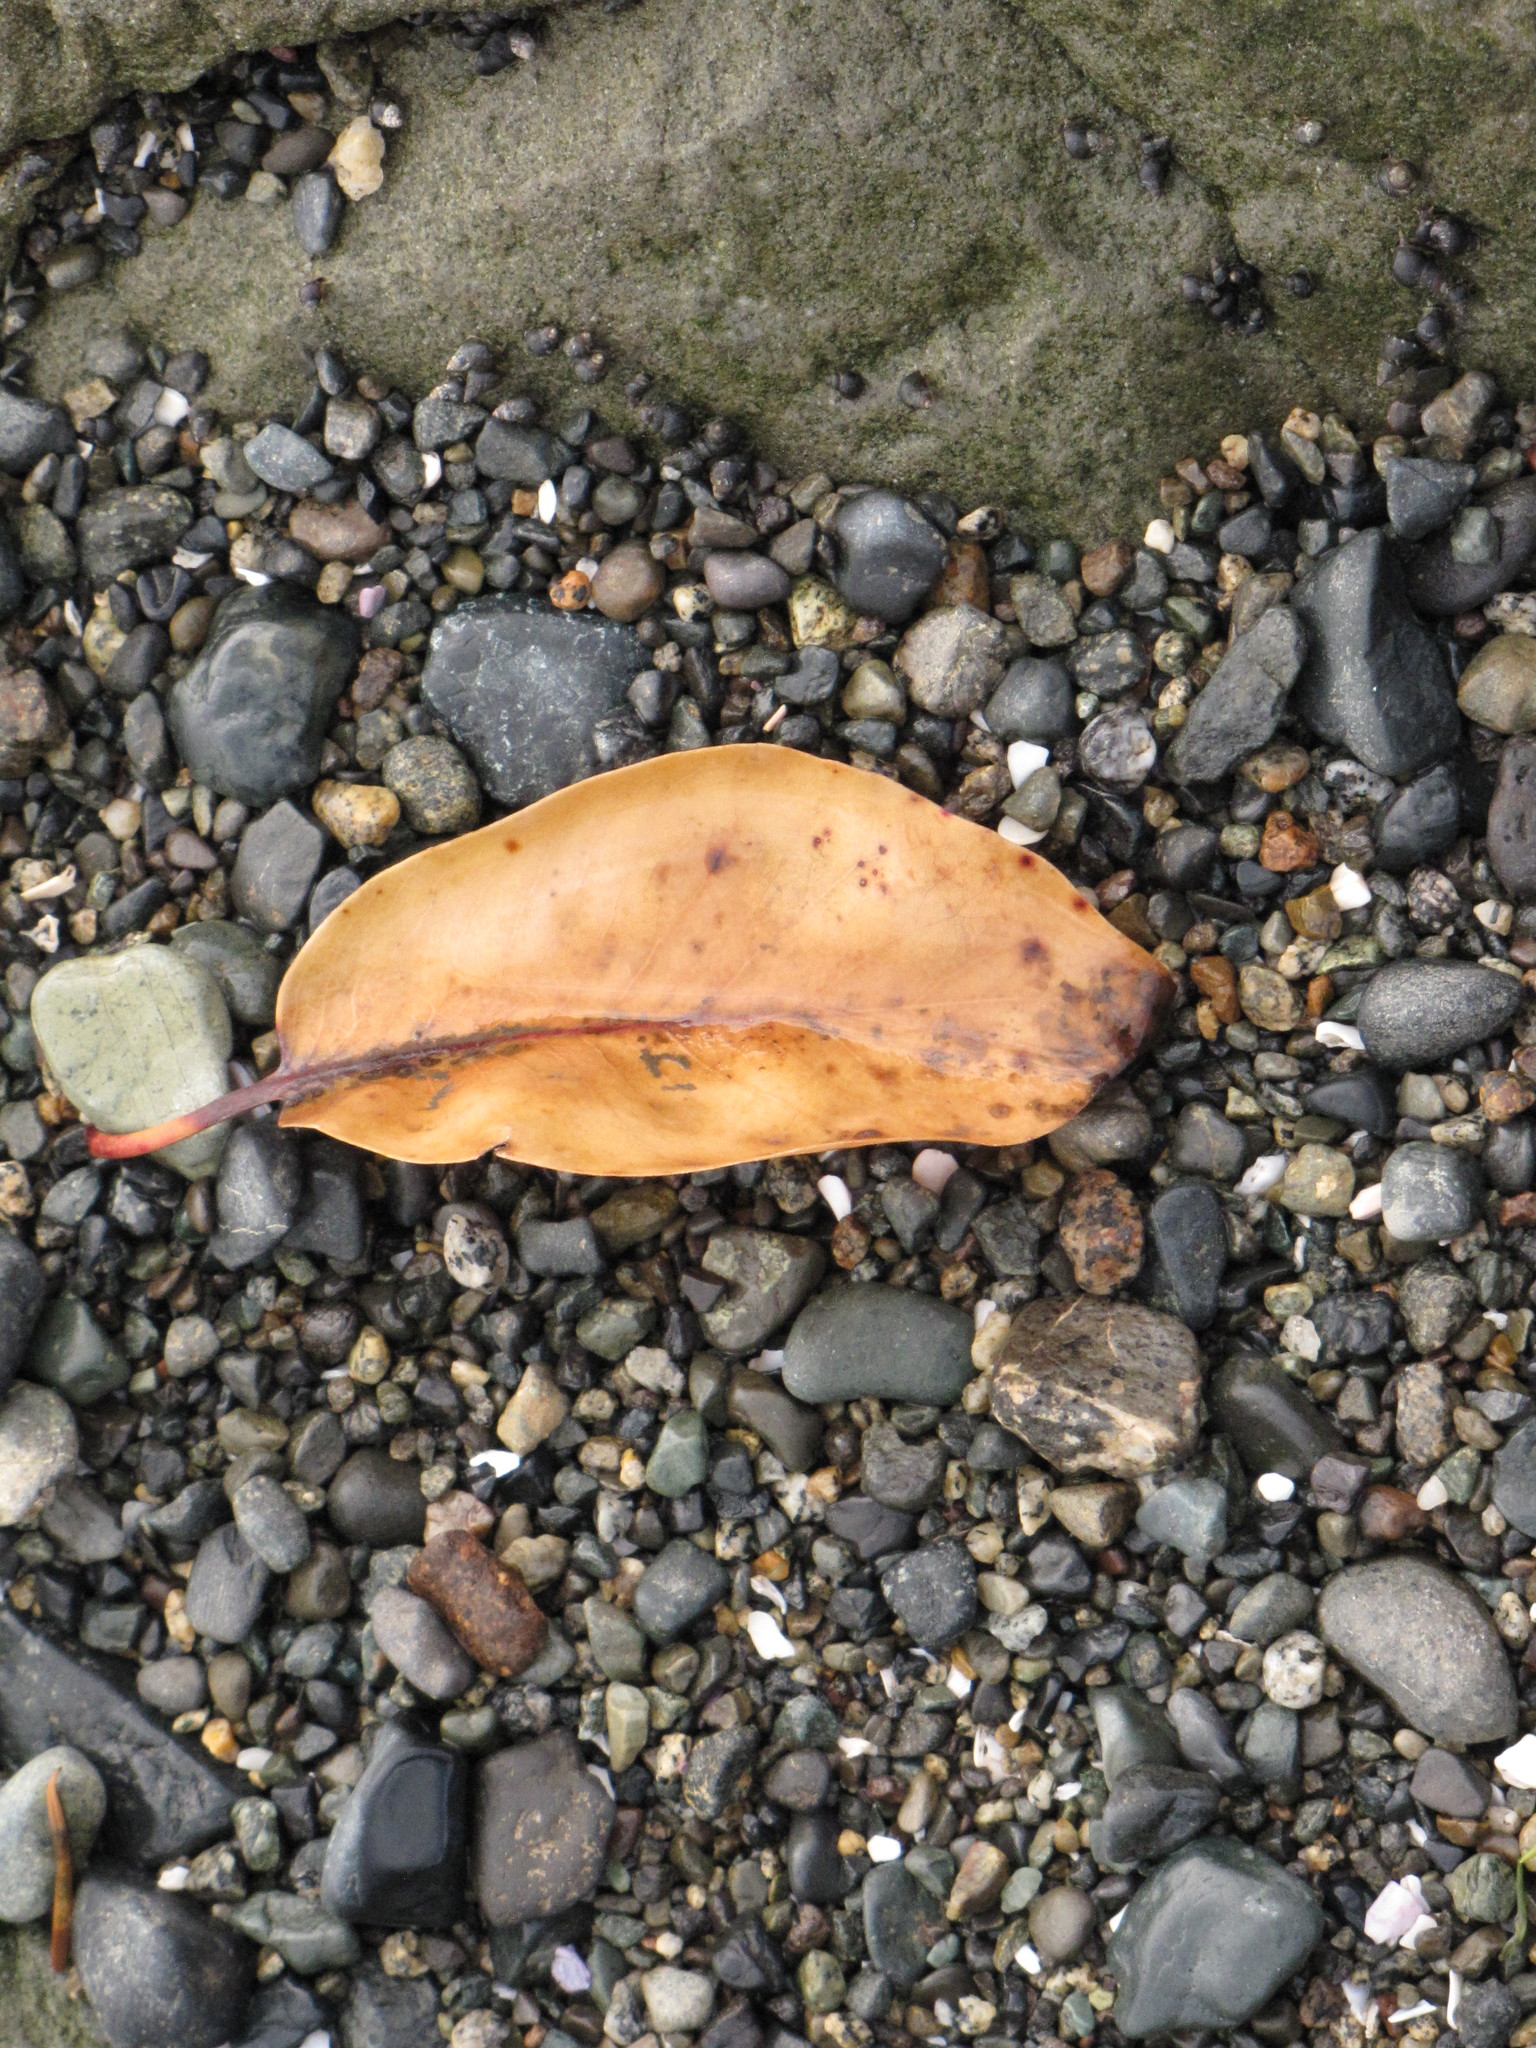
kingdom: Plantae
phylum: Tracheophyta
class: Magnoliopsida
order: Ericales
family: Ericaceae
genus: Arbutus
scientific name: Arbutus menziesii
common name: Pacific madrone
